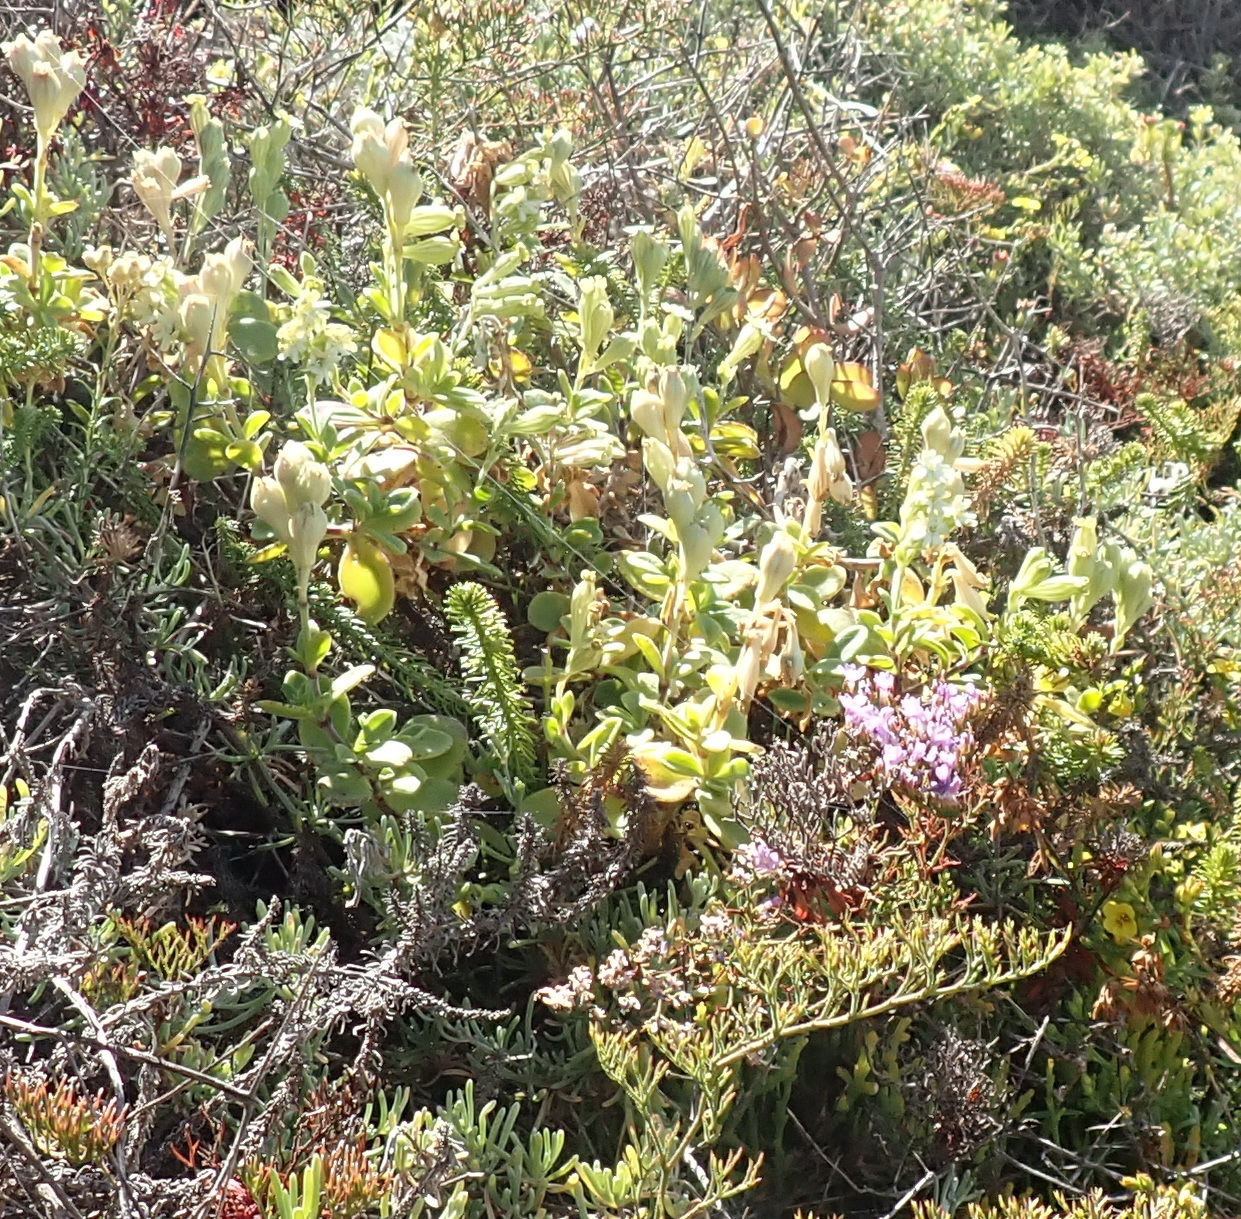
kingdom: Plantae
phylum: Tracheophyta
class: Magnoliopsida
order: Caryophyllales
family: Caryophyllaceae
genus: Silene
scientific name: Silene crassifolia
